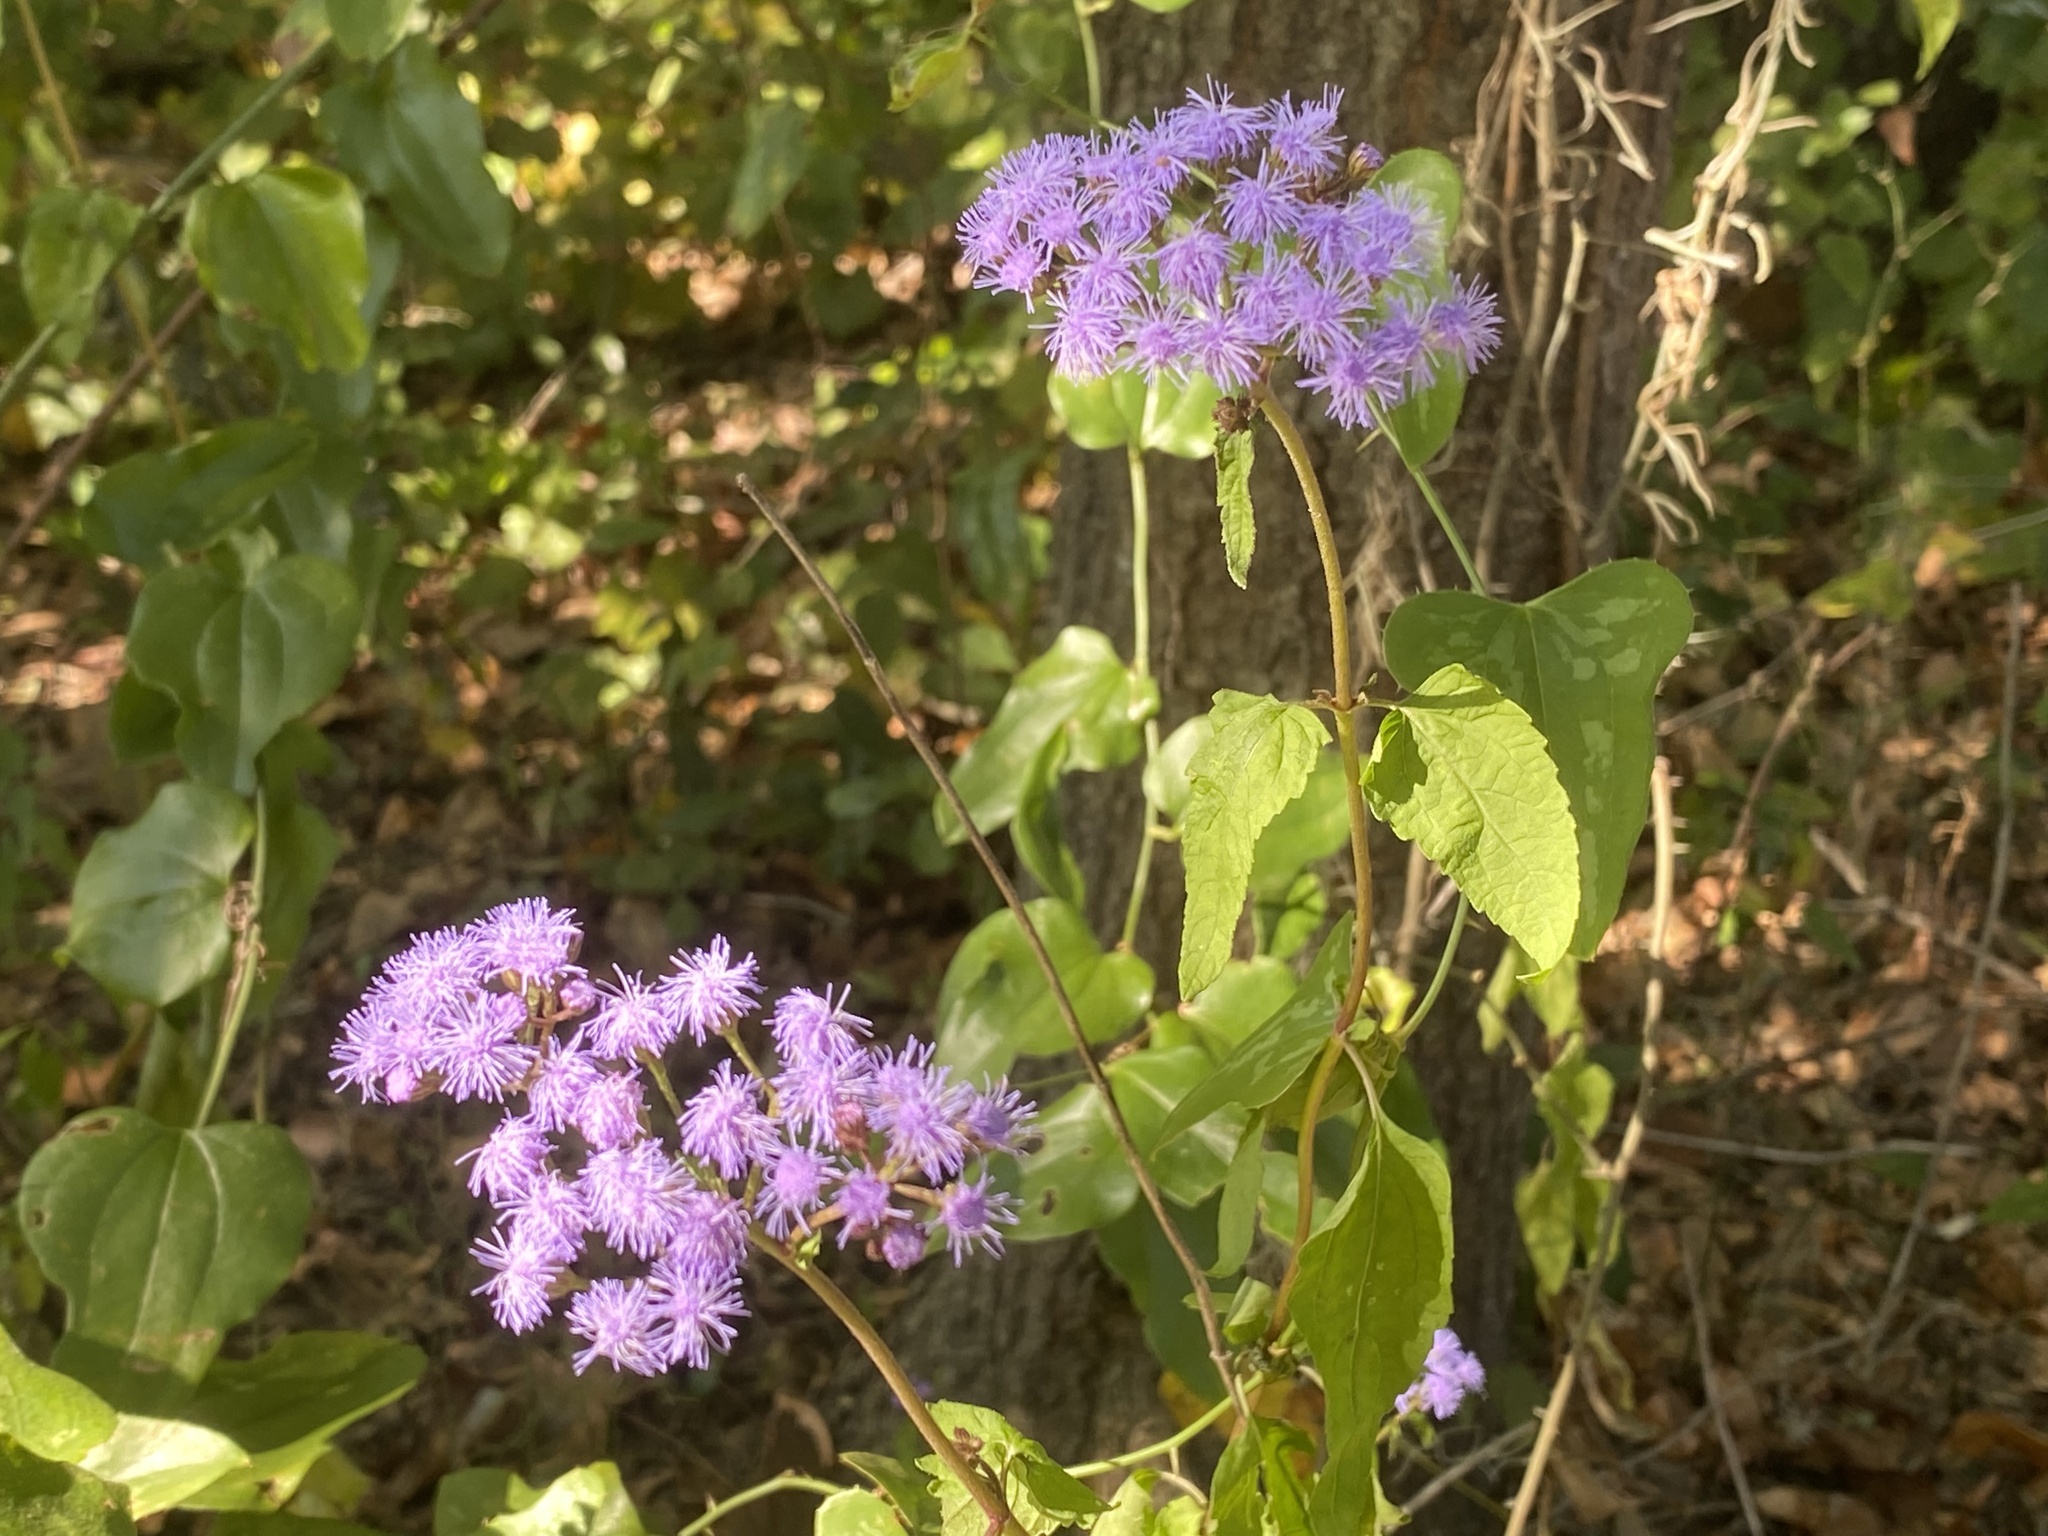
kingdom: Plantae
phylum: Tracheophyta
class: Magnoliopsida
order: Asterales
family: Asteraceae
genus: Conoclinium
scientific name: Conoclinium coelestinum
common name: Blue mistflower
